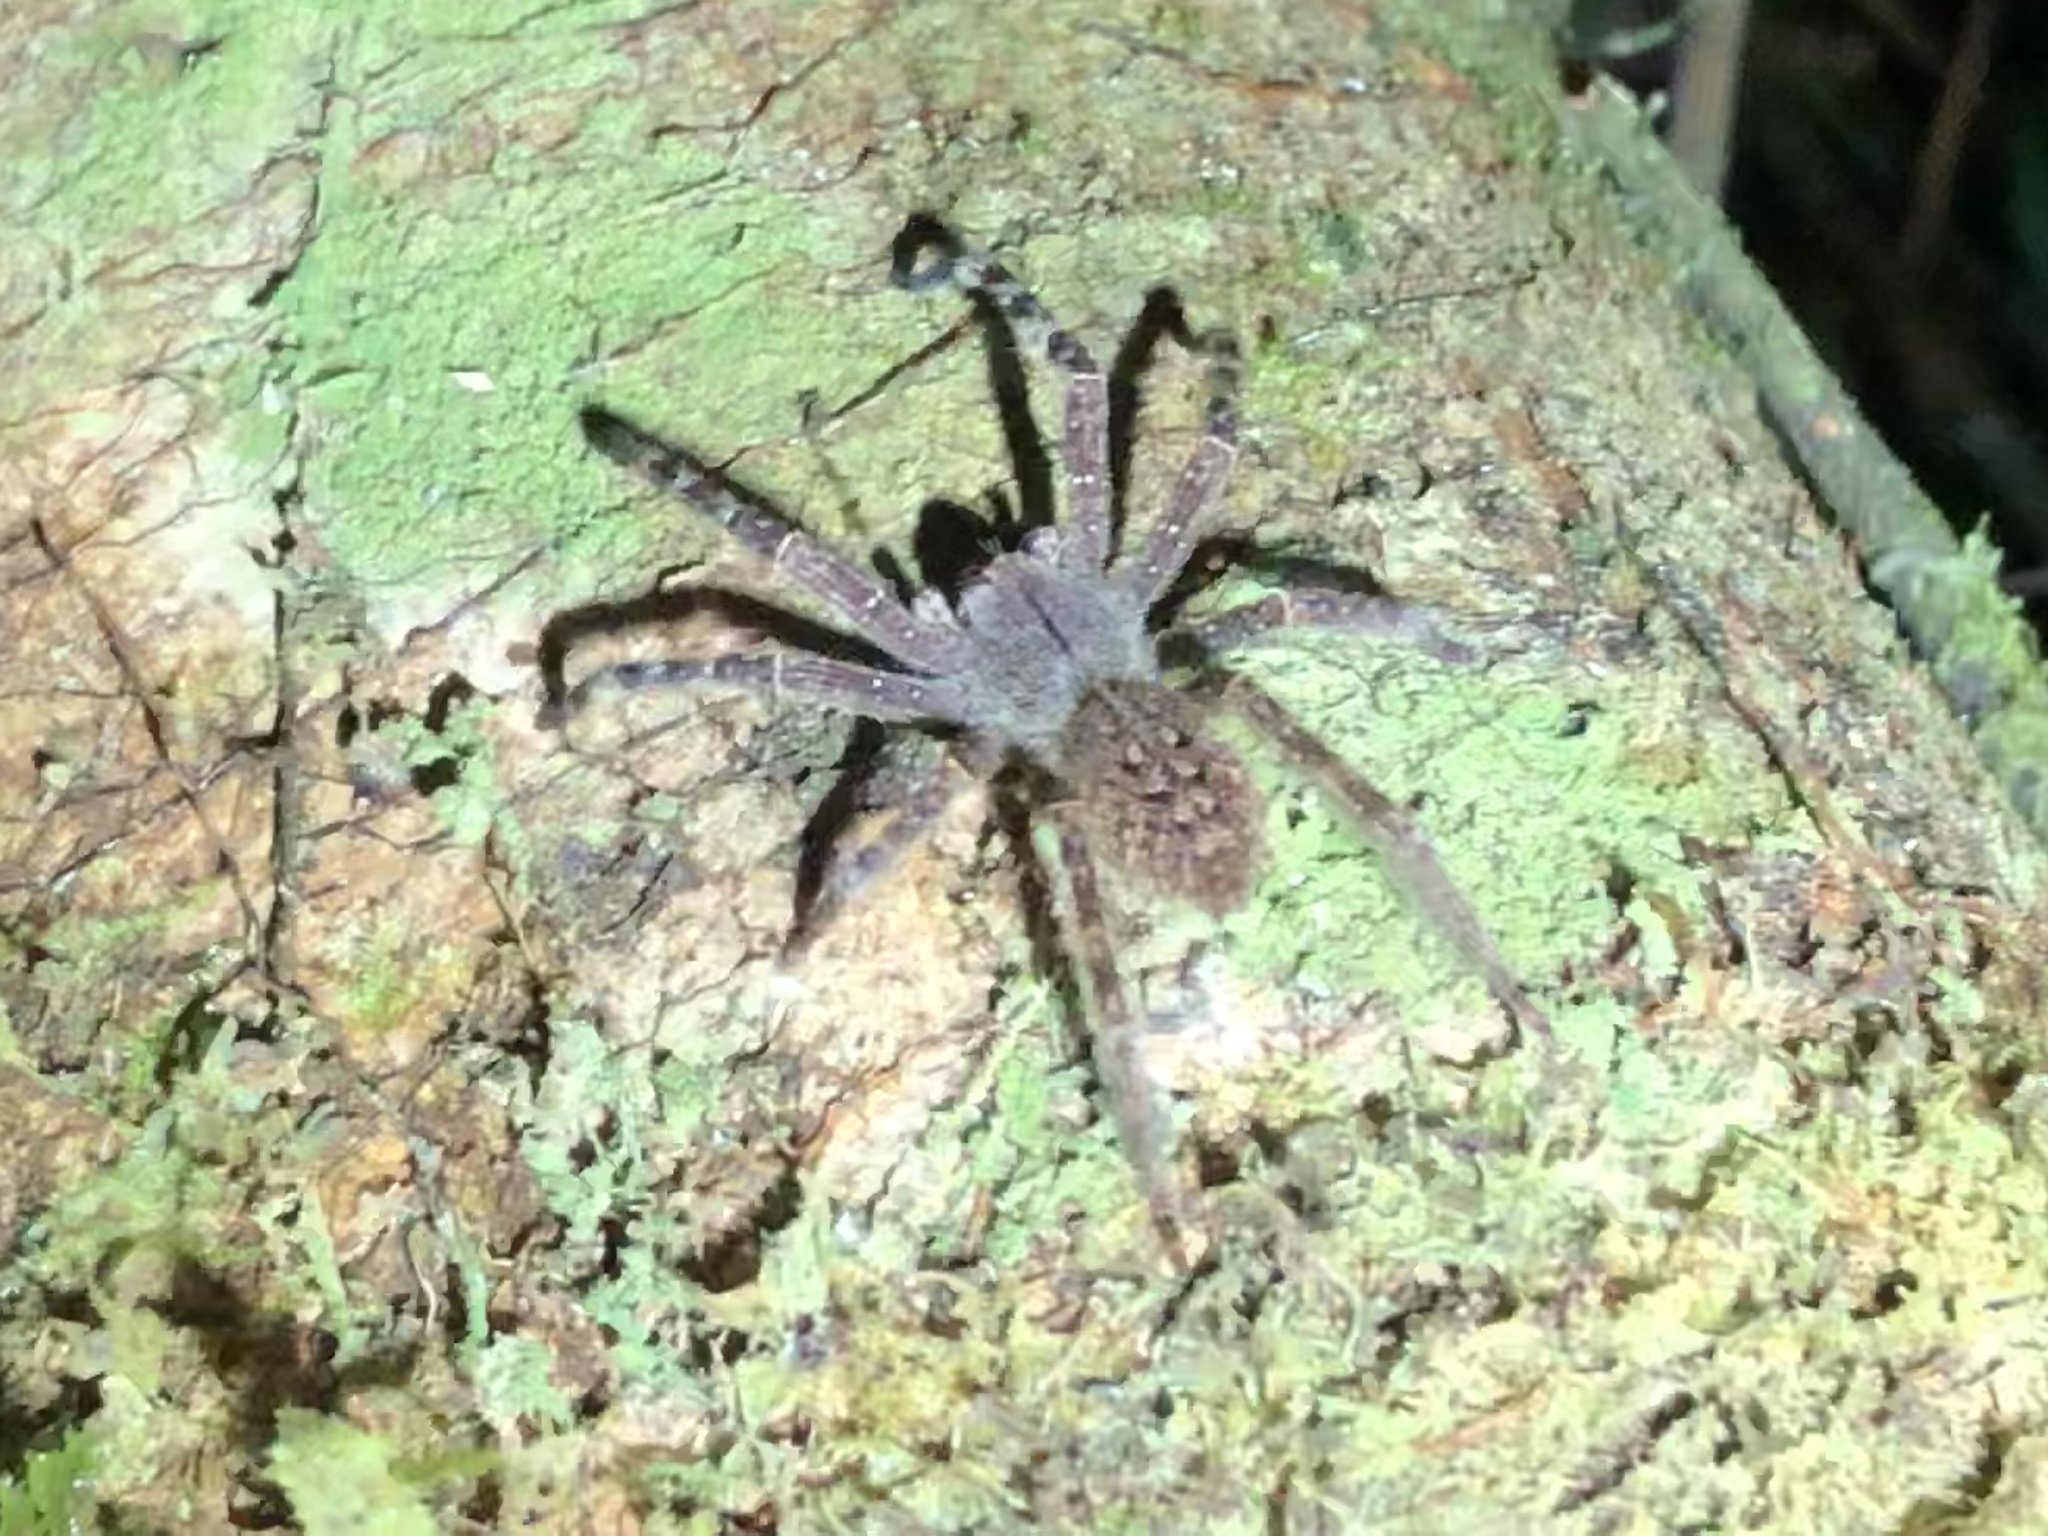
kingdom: Animalia
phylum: Arthropoda
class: Arachnida
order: Araneae
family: Ctenidae
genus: Phoneutria
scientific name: Phoneutria fera
